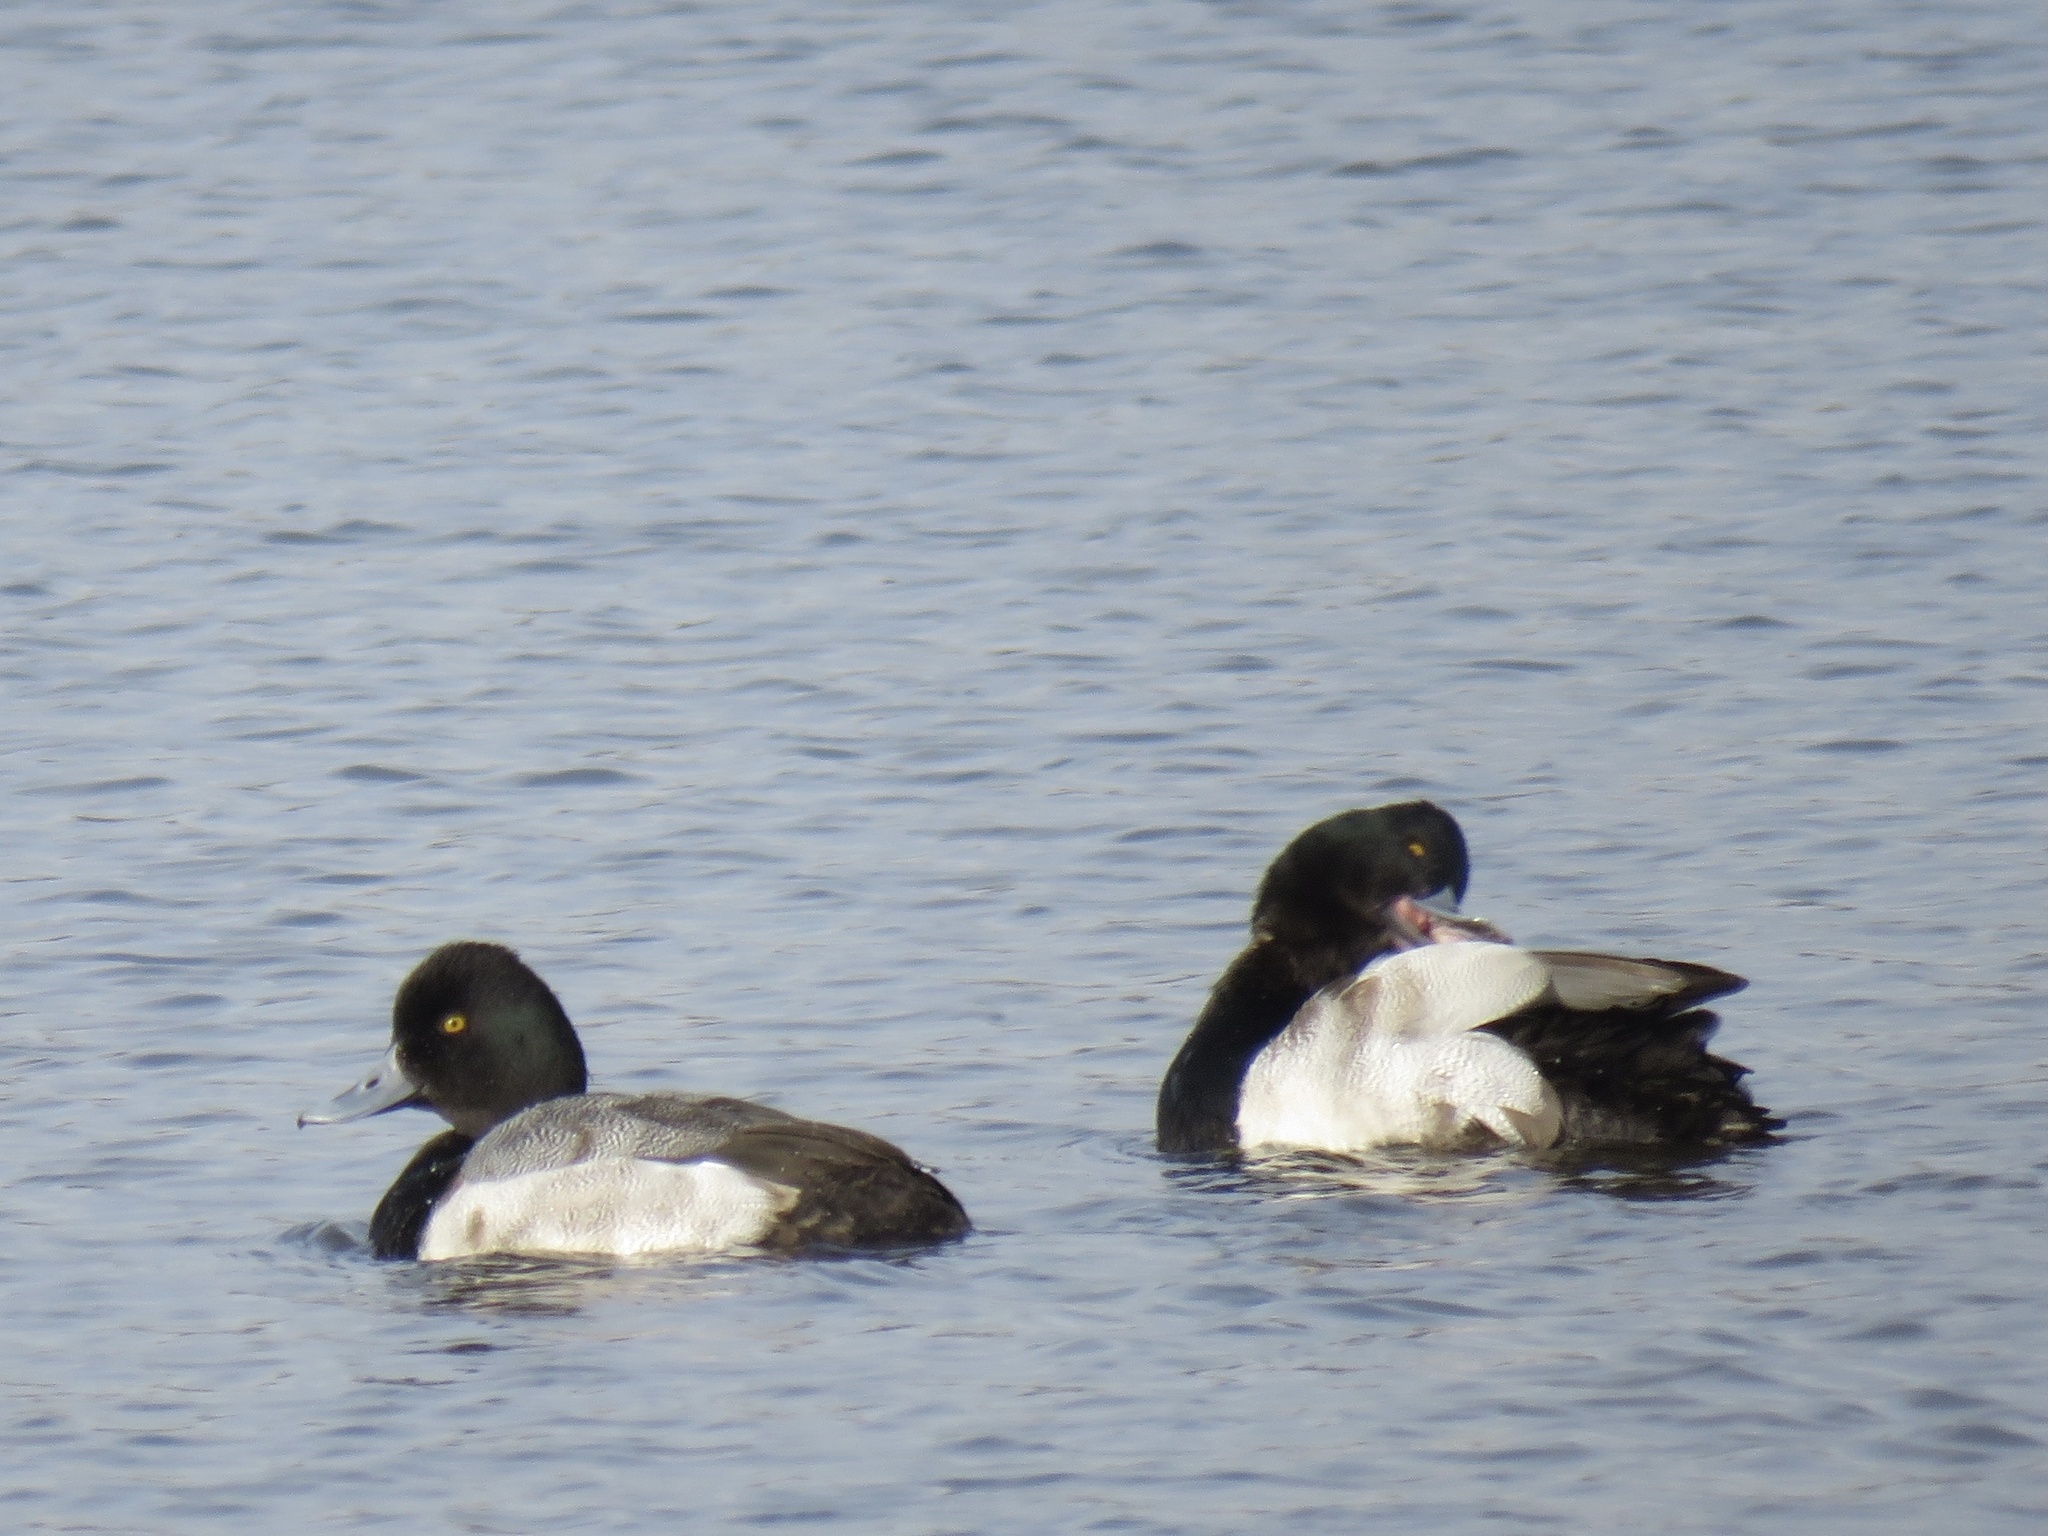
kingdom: Animalia
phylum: Chordata
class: Aves
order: Anseriformes
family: Anatidae
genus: Aythya
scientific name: Aythya affinis
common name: Lesser scaup
